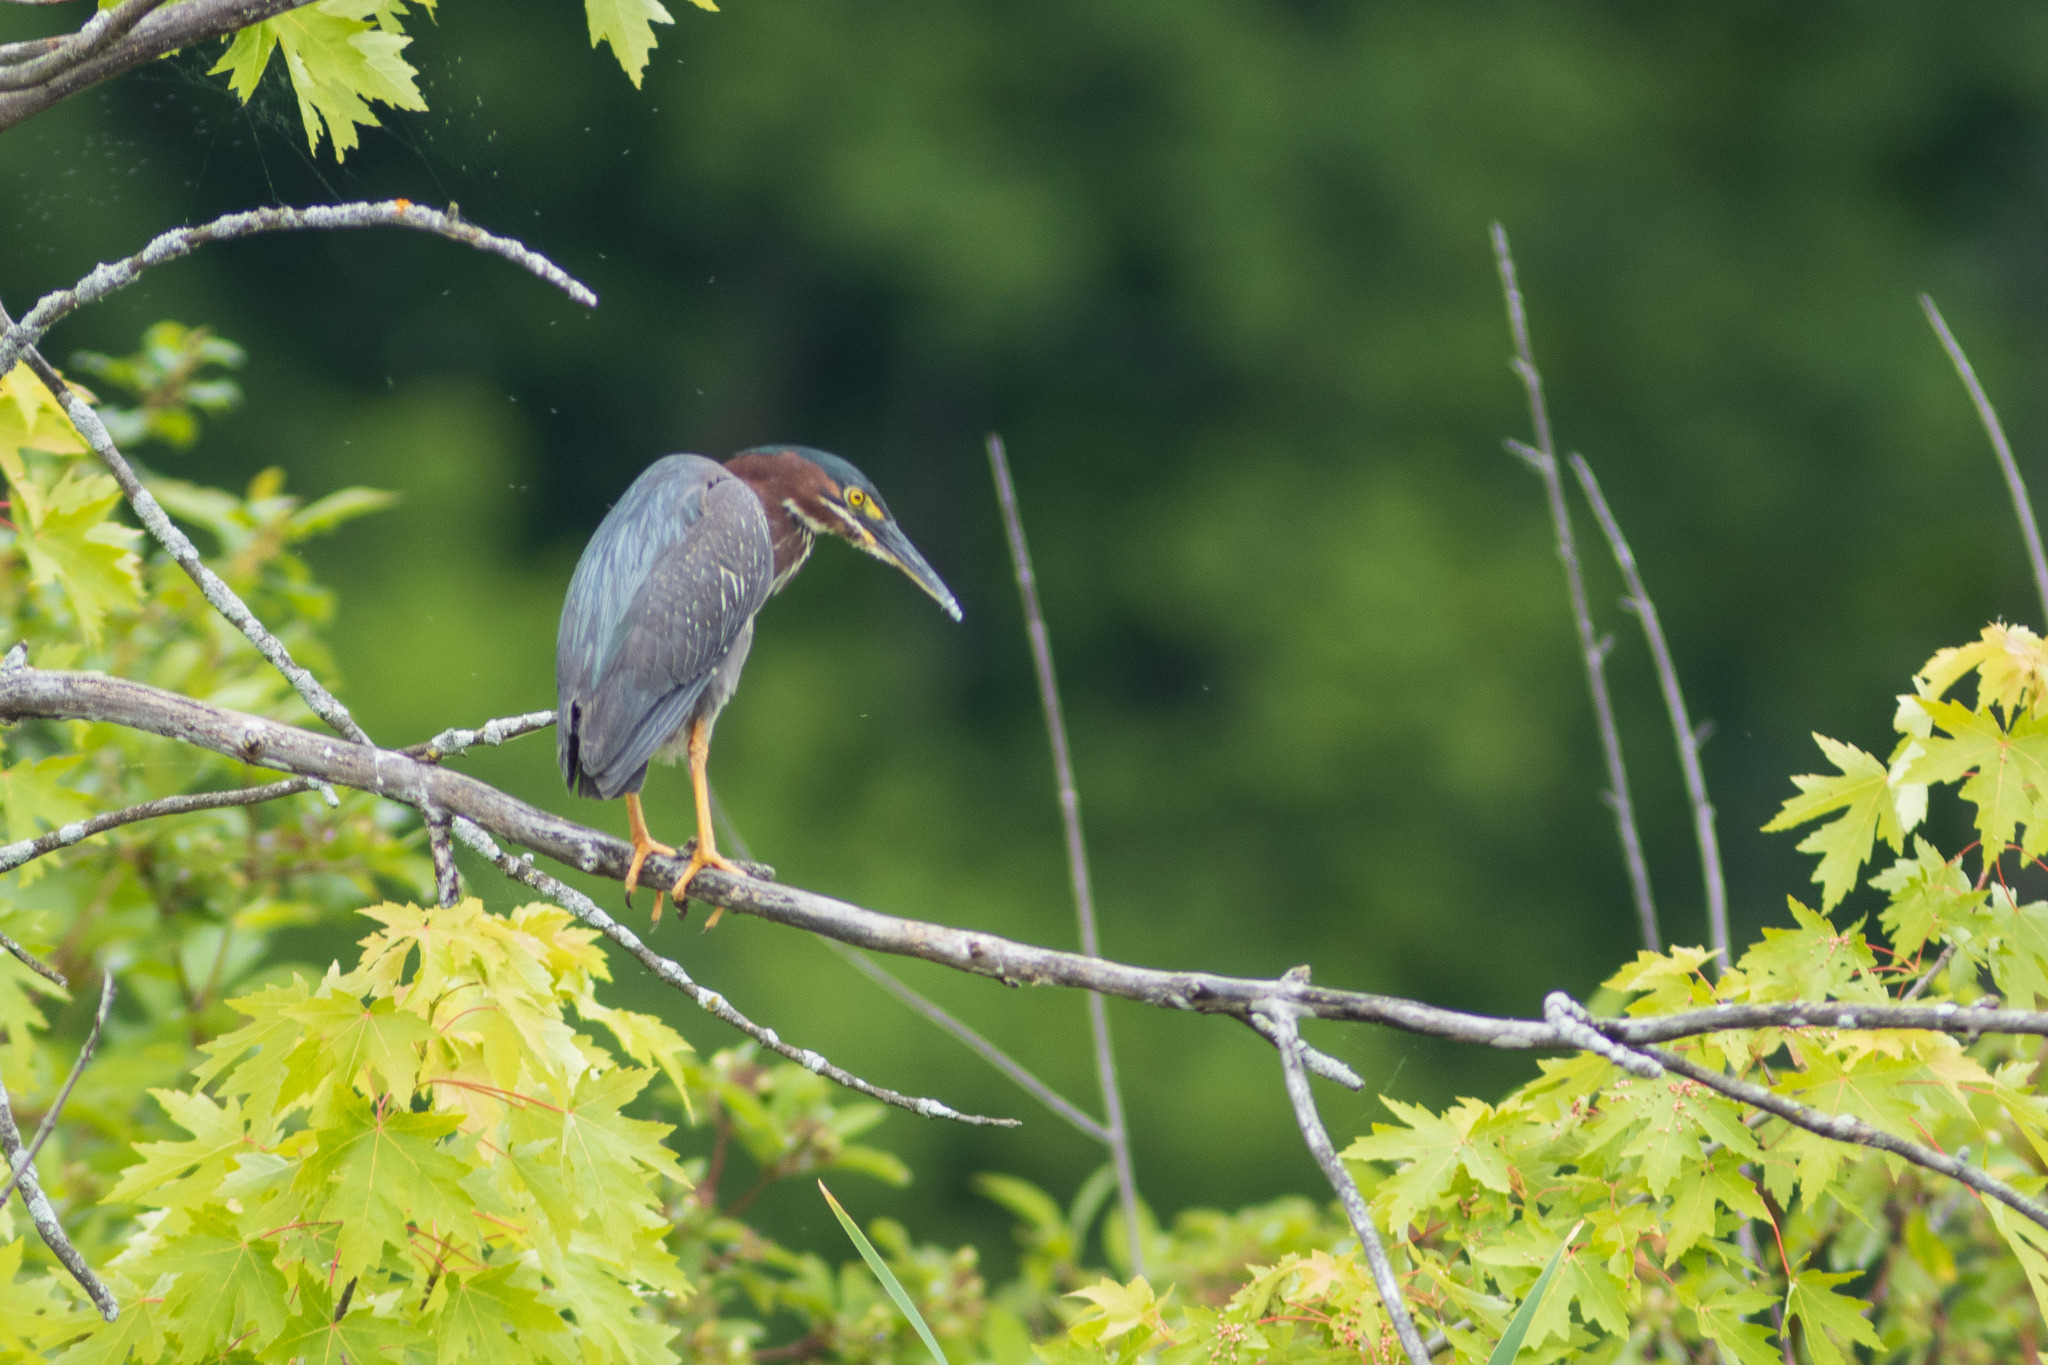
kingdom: Animalia
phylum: Chordata
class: Aves
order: Pelecaniformes
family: Ardeidae
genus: Butorides
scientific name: Butorides virescens
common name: Green heron
